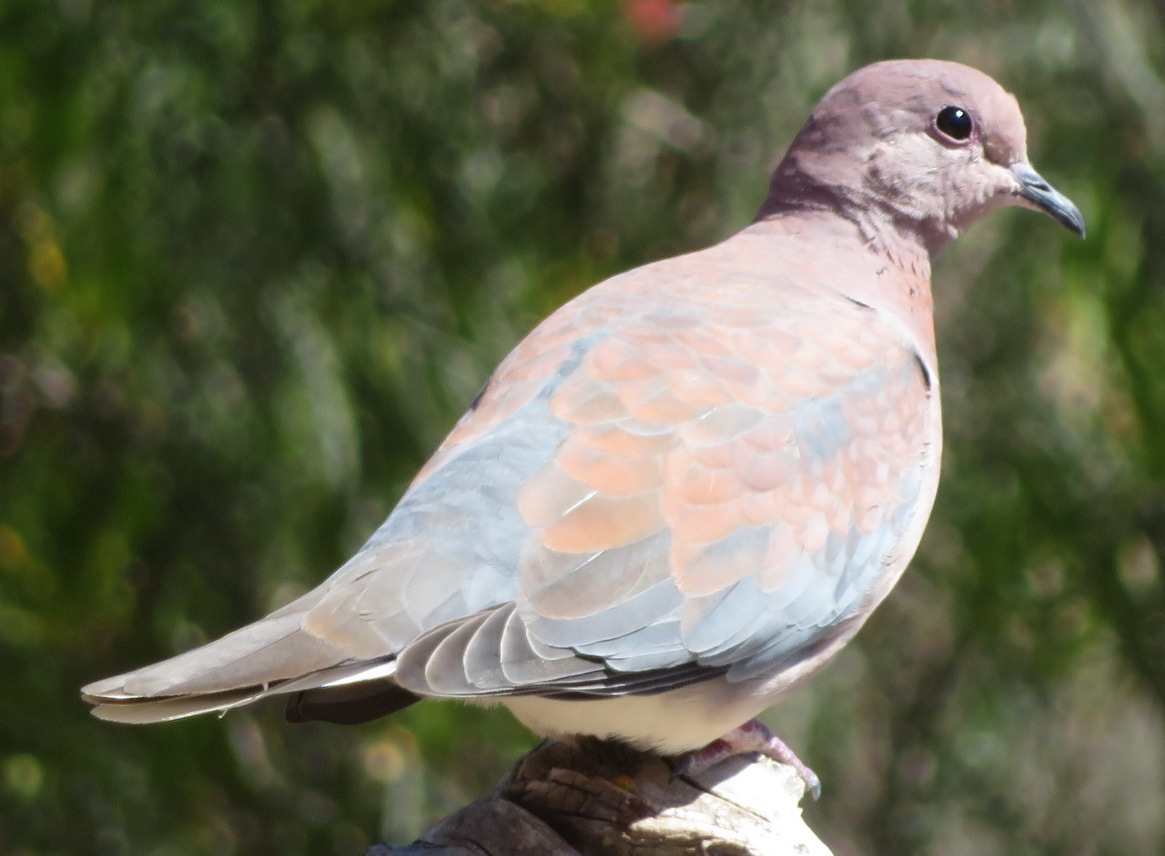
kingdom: Animalia
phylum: Chordata
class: Aves
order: Columbiformes
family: Columbidae
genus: Spilopelia
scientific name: Spilopelia senegalensis
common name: Laughing dove
